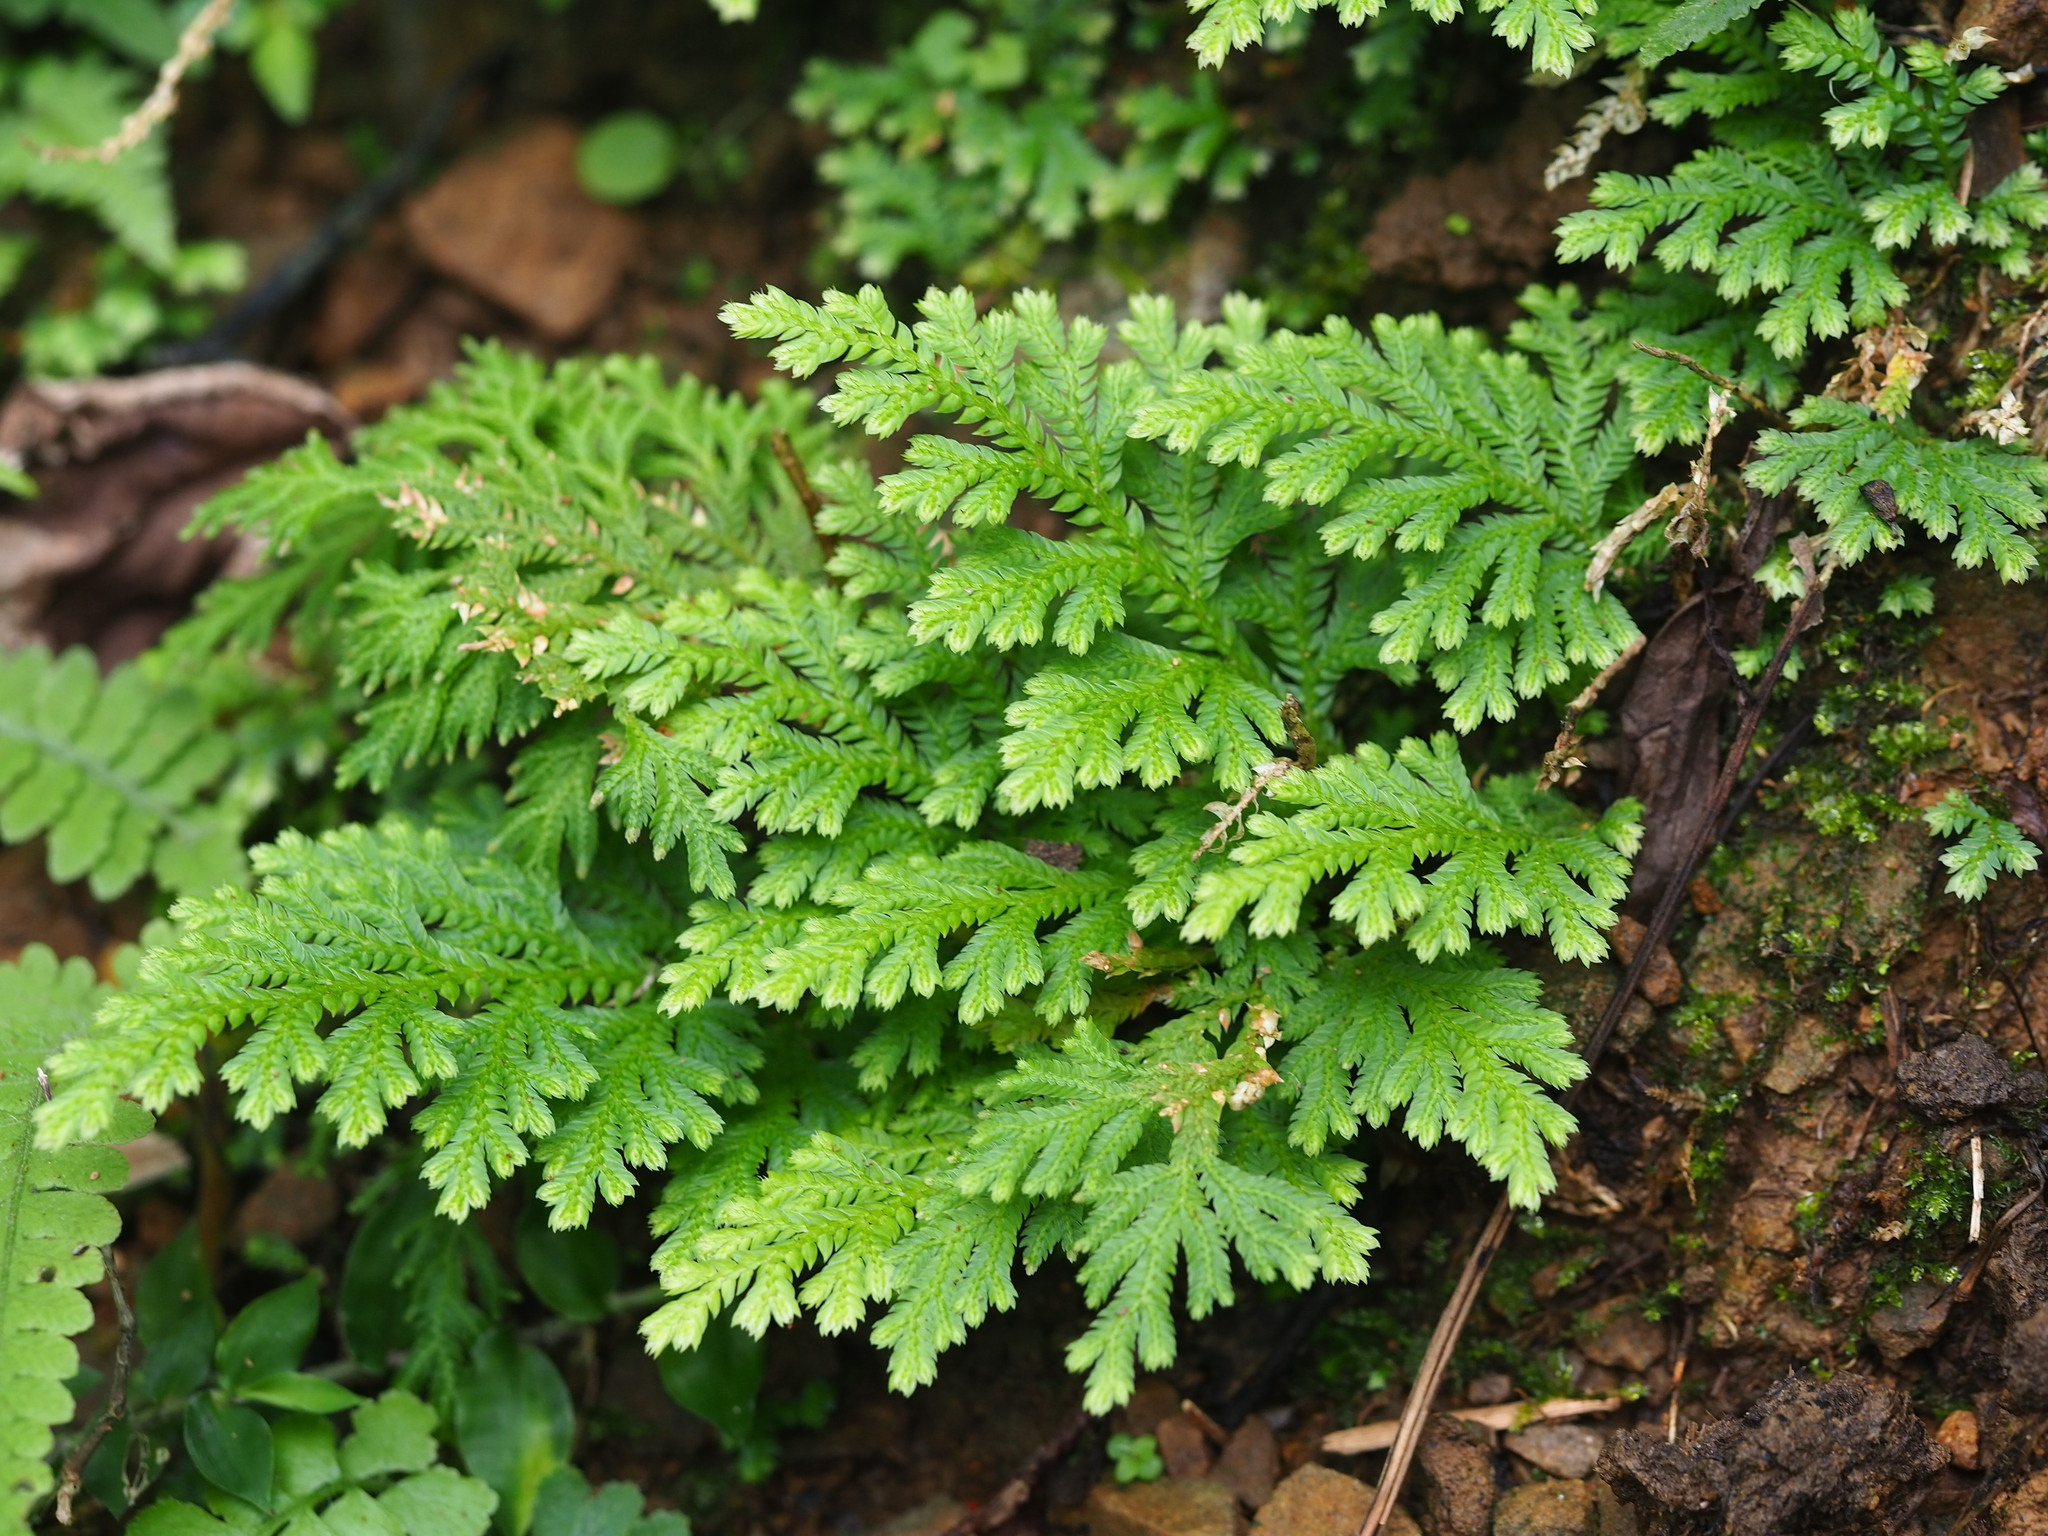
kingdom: Plantae
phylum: Tracheophyta
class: Lycopodiopsida
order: Selaginellales
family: Selaginellaceae
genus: Selaginella
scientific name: Selaginella moellendorffii
